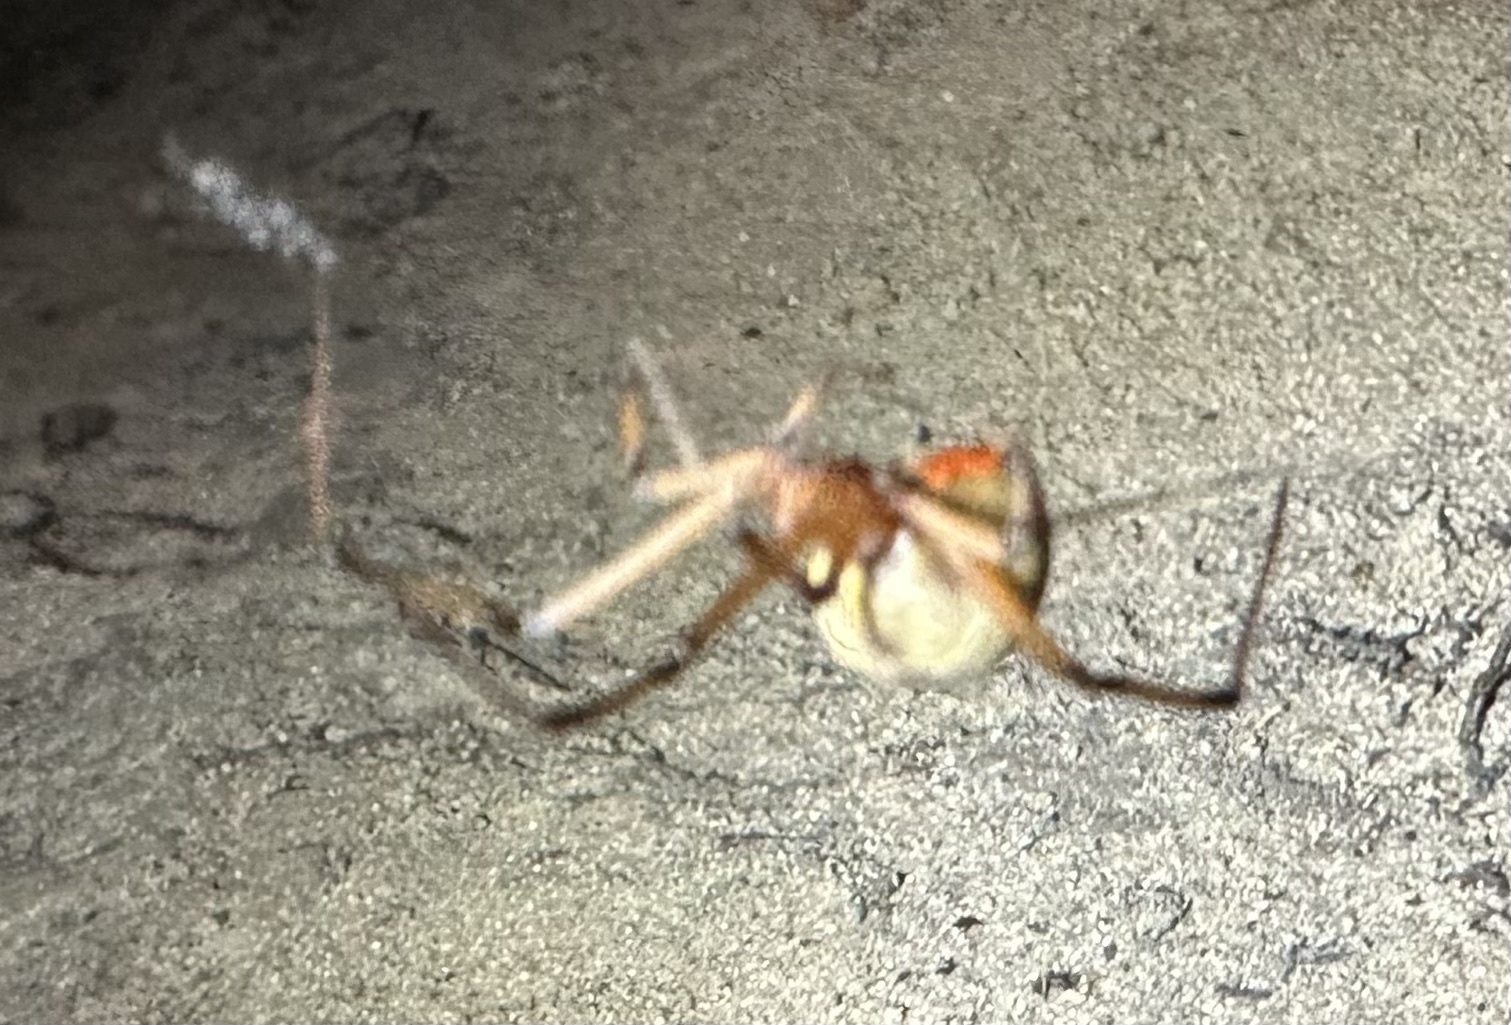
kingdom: Animalia
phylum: Arthropoda
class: Arachnida
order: Araneae
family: Theridiidae
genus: Latrodectus
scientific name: Latrodectus geometricus
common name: Brown widow spider
